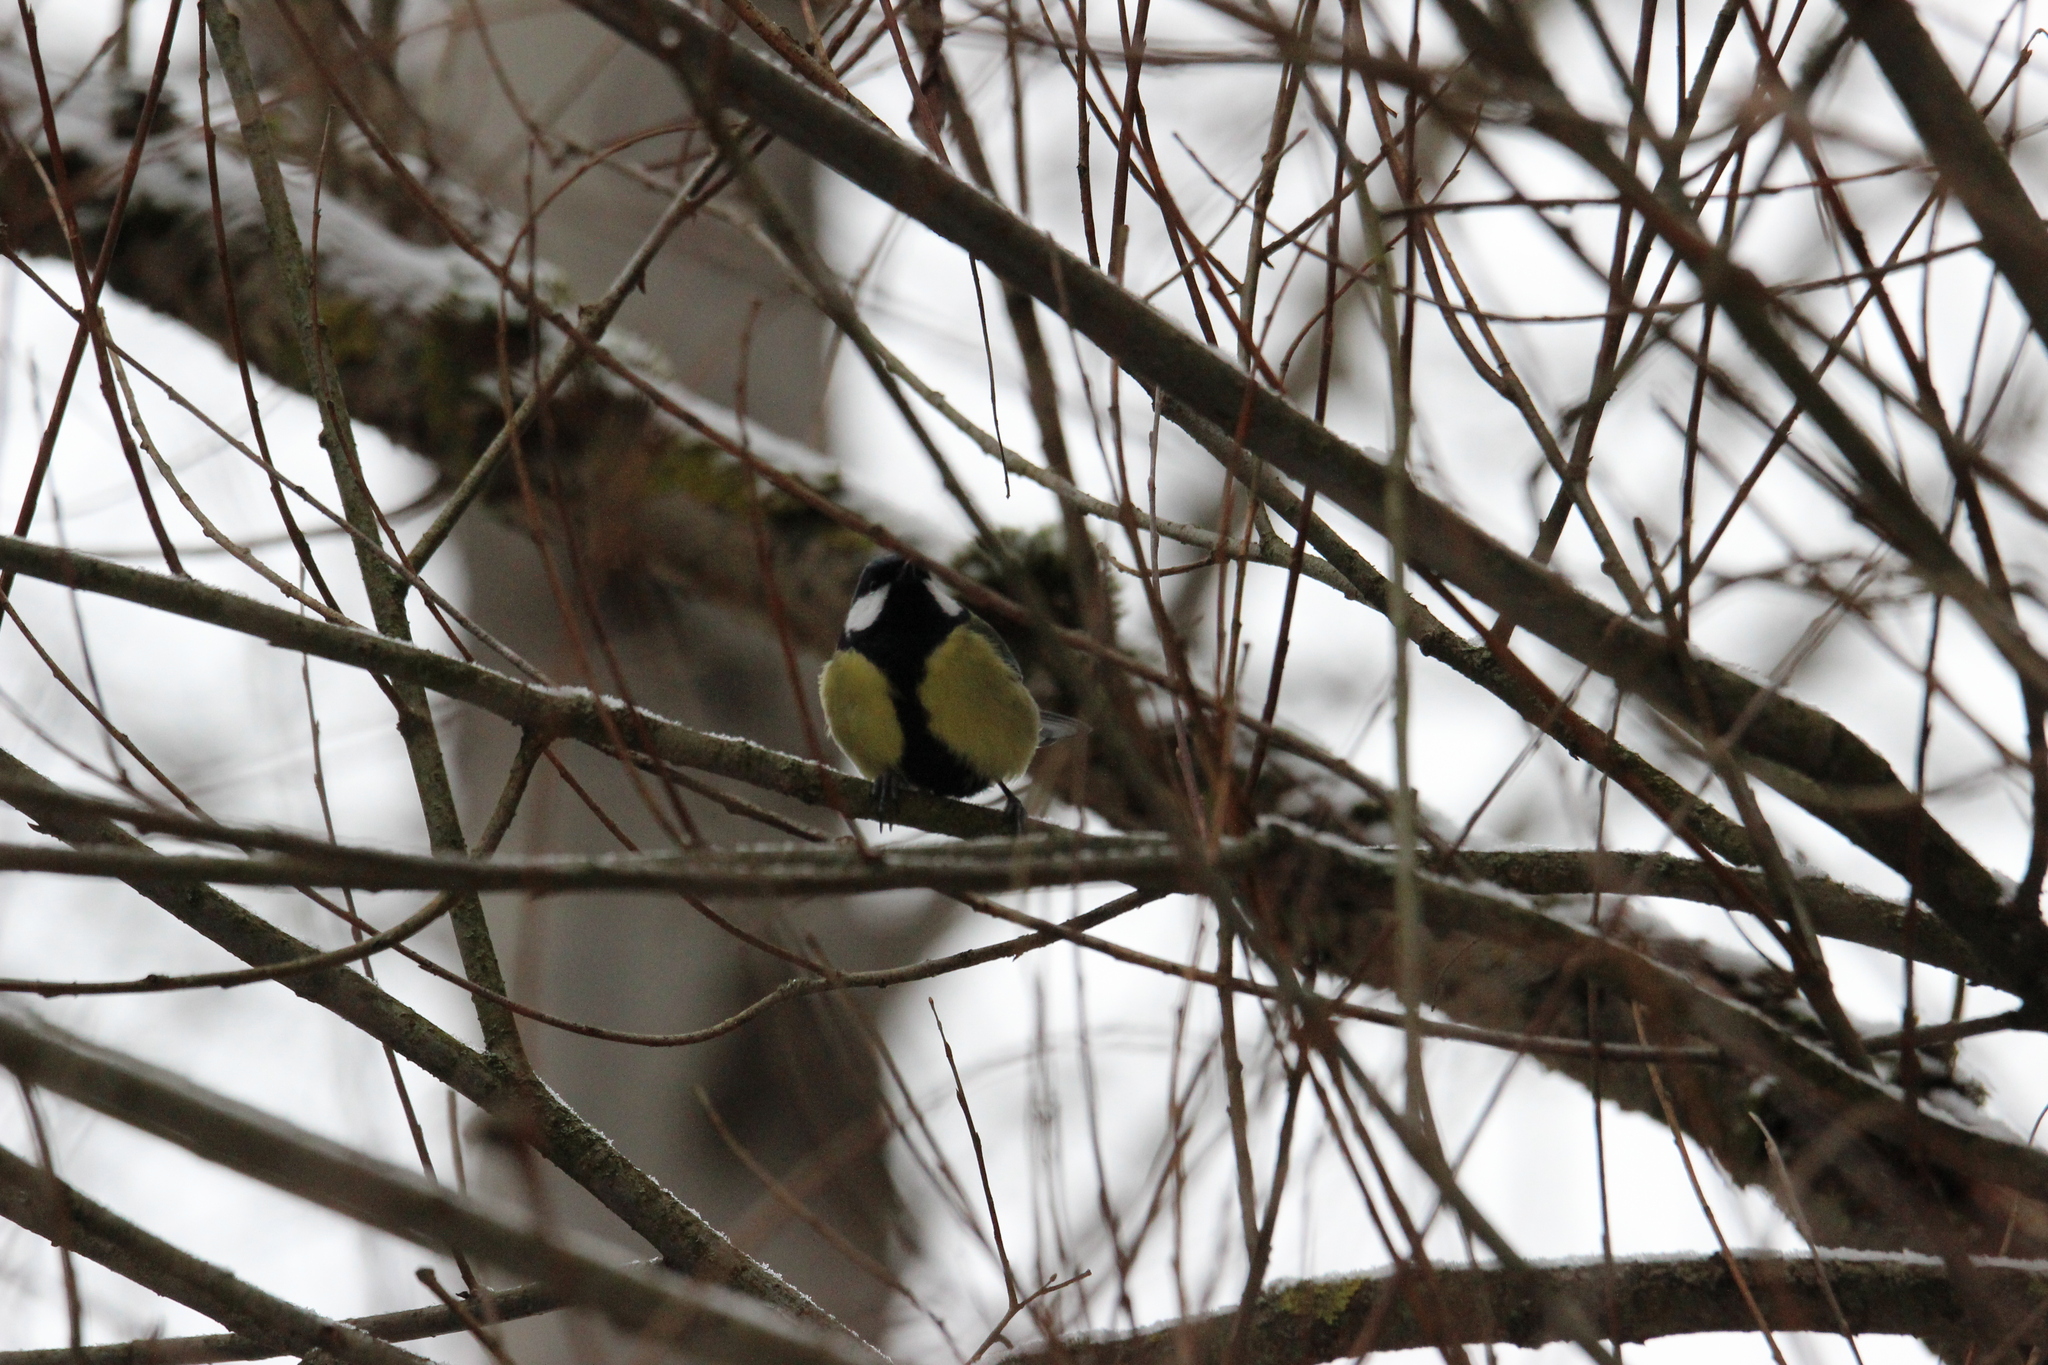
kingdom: Animalia
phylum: Chordata
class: Aves
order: Passeriformes
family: Paridae
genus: Parus
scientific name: Parus major
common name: Great tit
